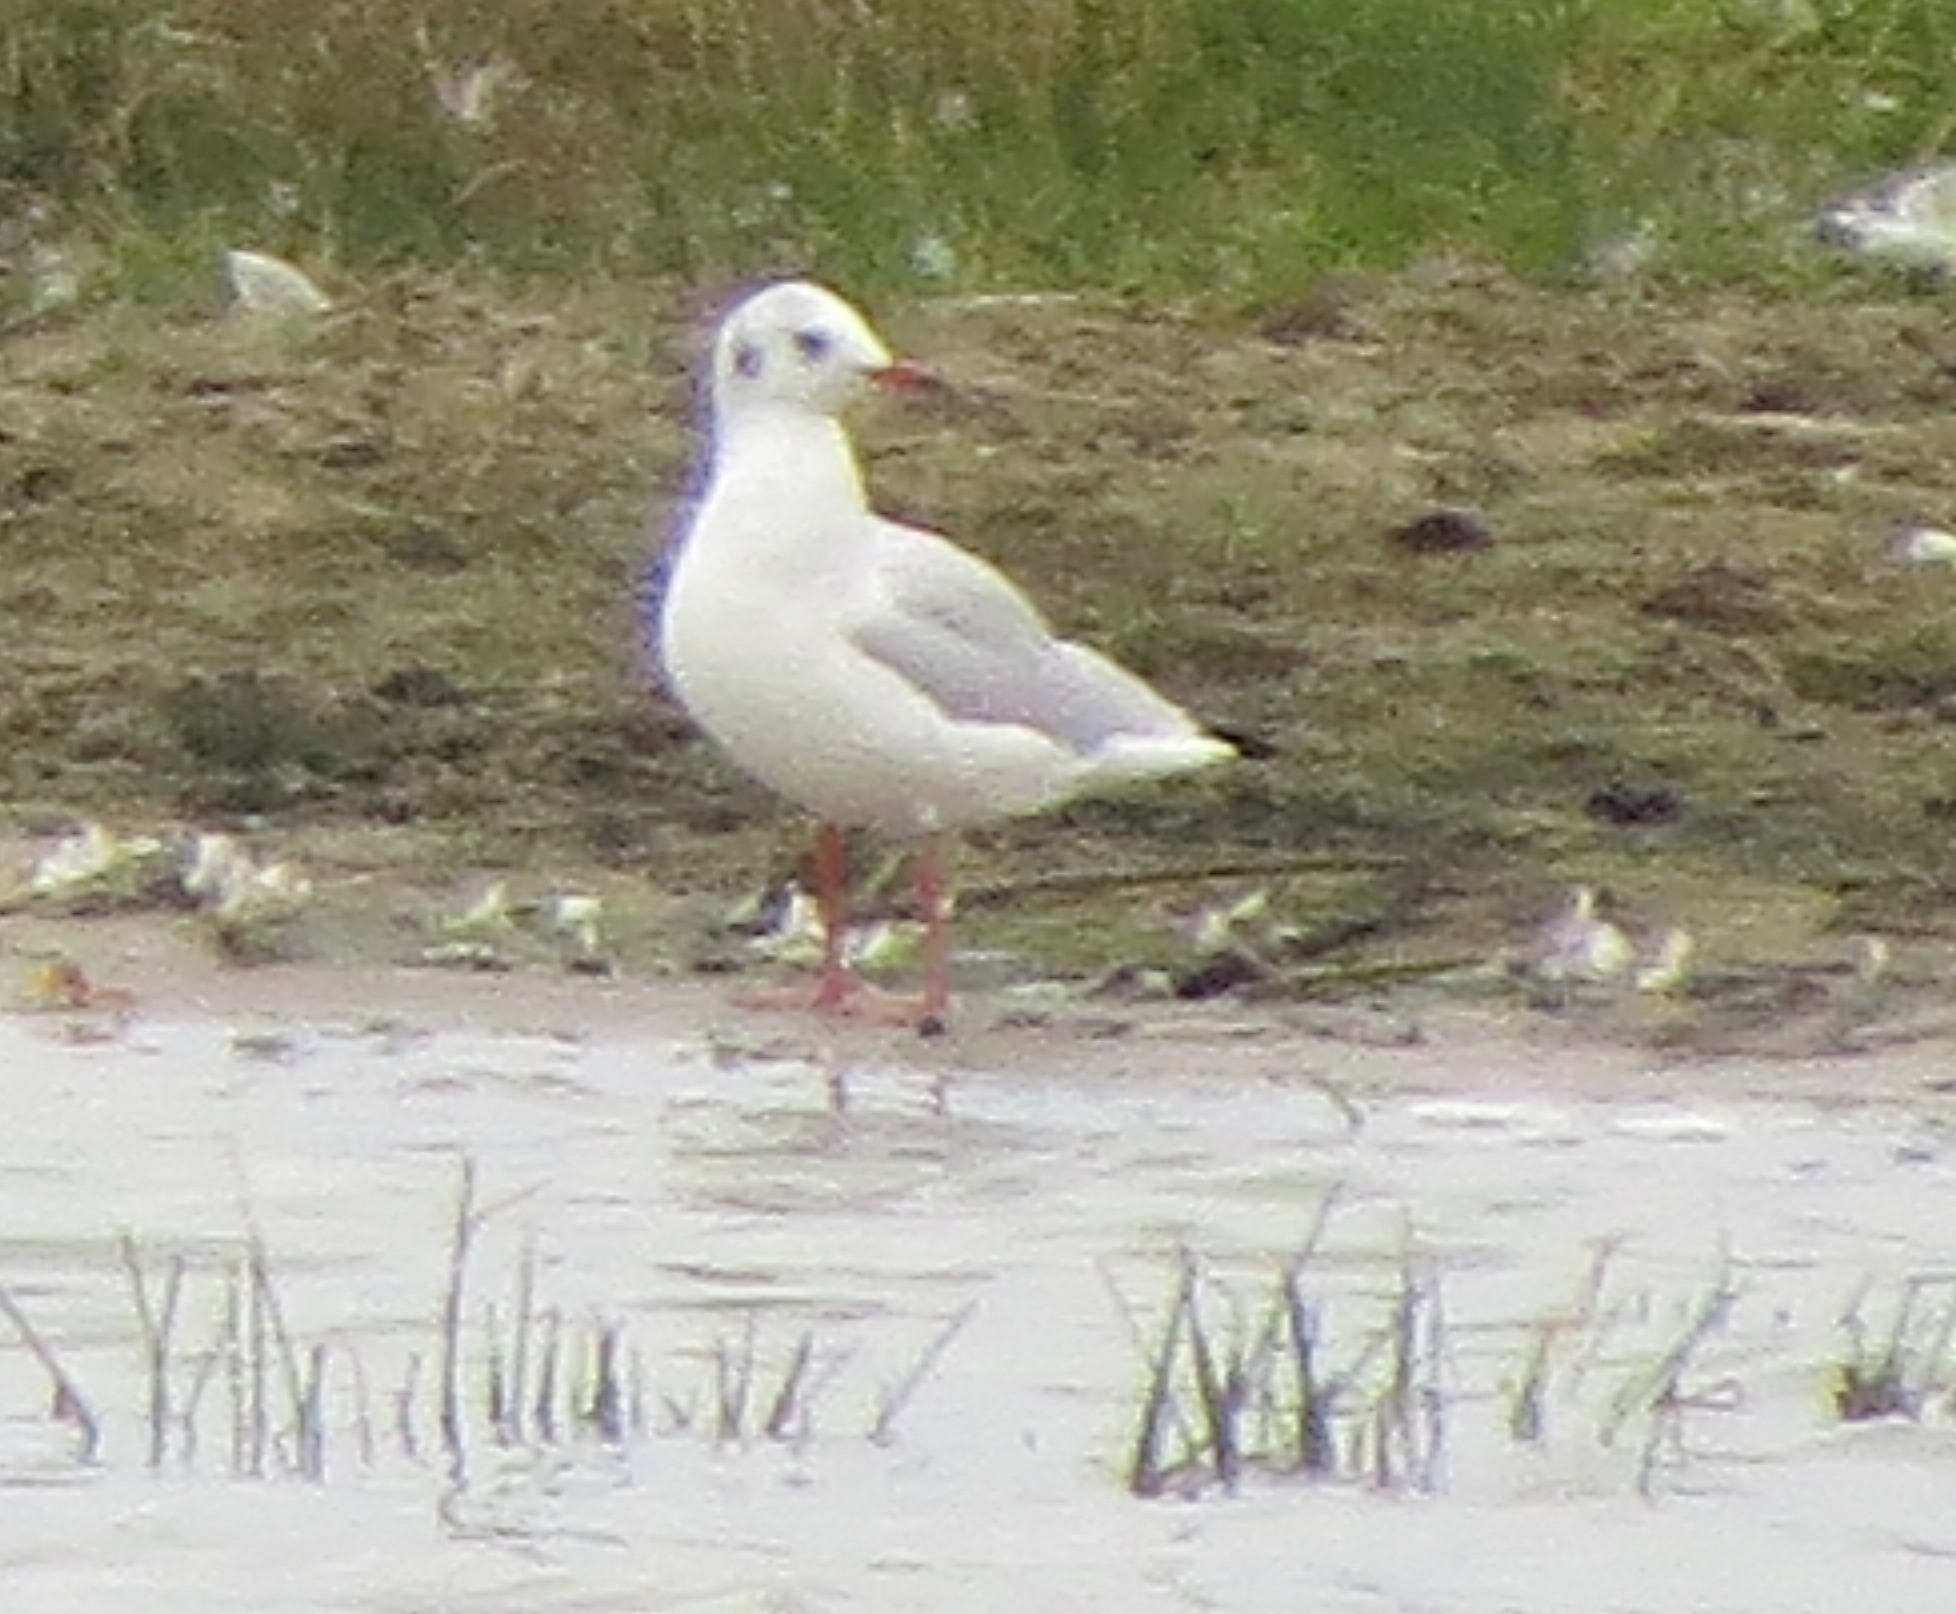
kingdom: Animalia
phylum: Chordata
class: Aves
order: Charadriiformes
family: Laridae
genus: Chroicocephalus
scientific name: Chroicocephalus ridibundus
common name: Black-headed gull
